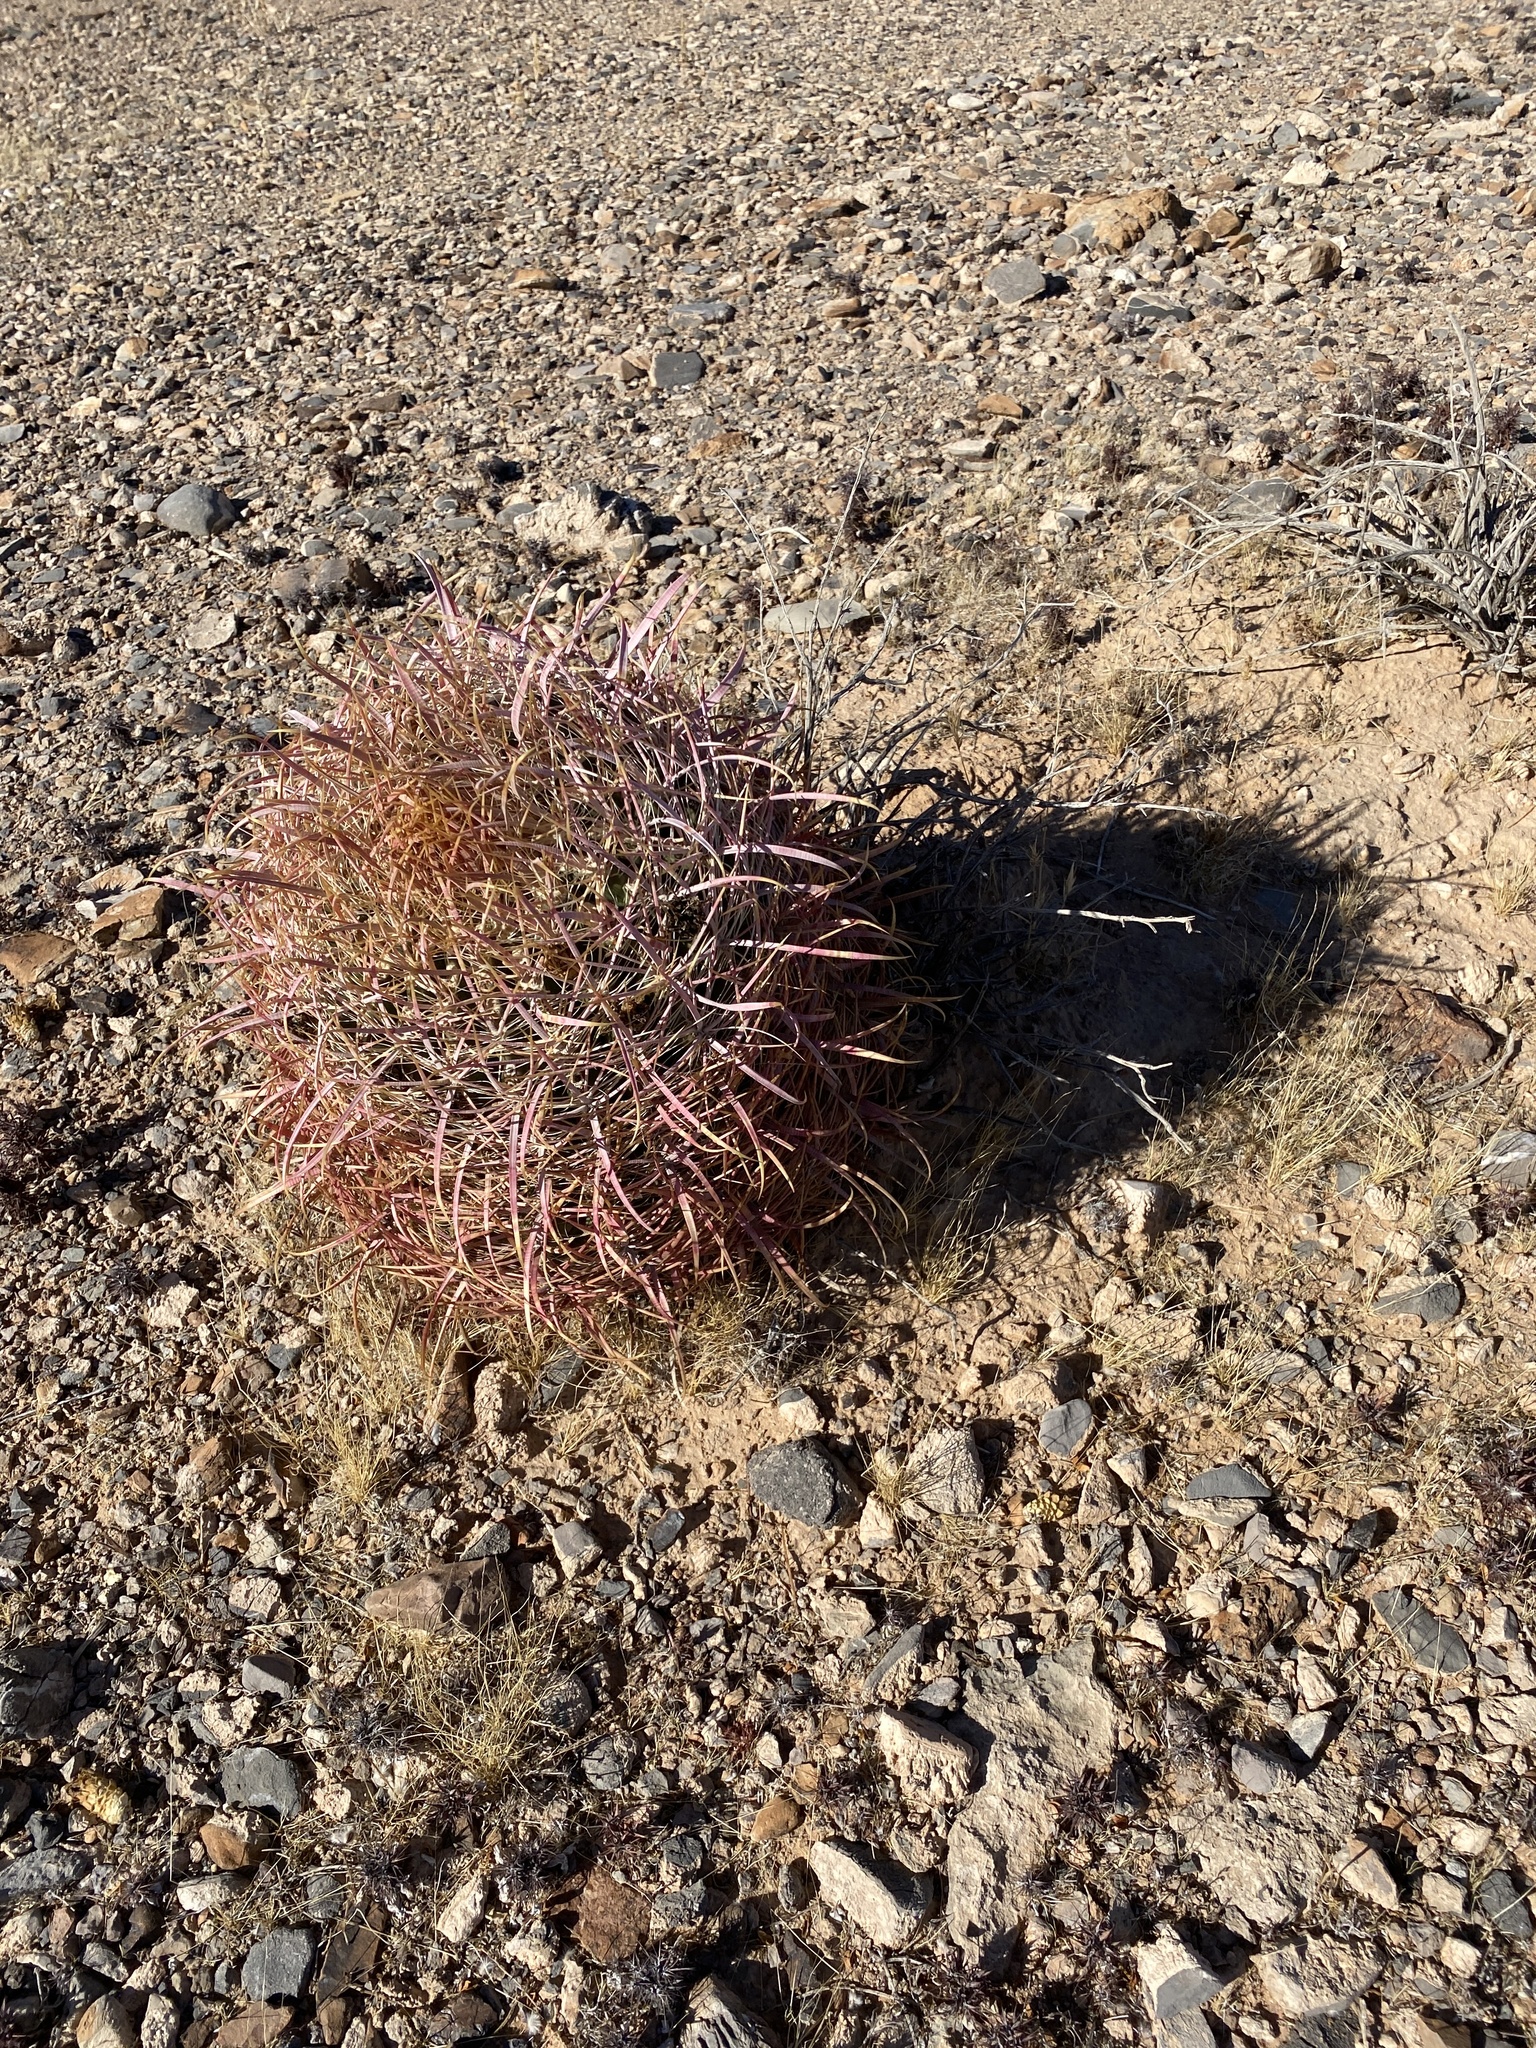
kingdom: Plantae
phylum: Tracheophyta
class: Magnoliopsida
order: Caryophyllales
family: Cactaceae
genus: Ferocactus
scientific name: Ferocactus cylindraceus
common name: California barrel cactus
